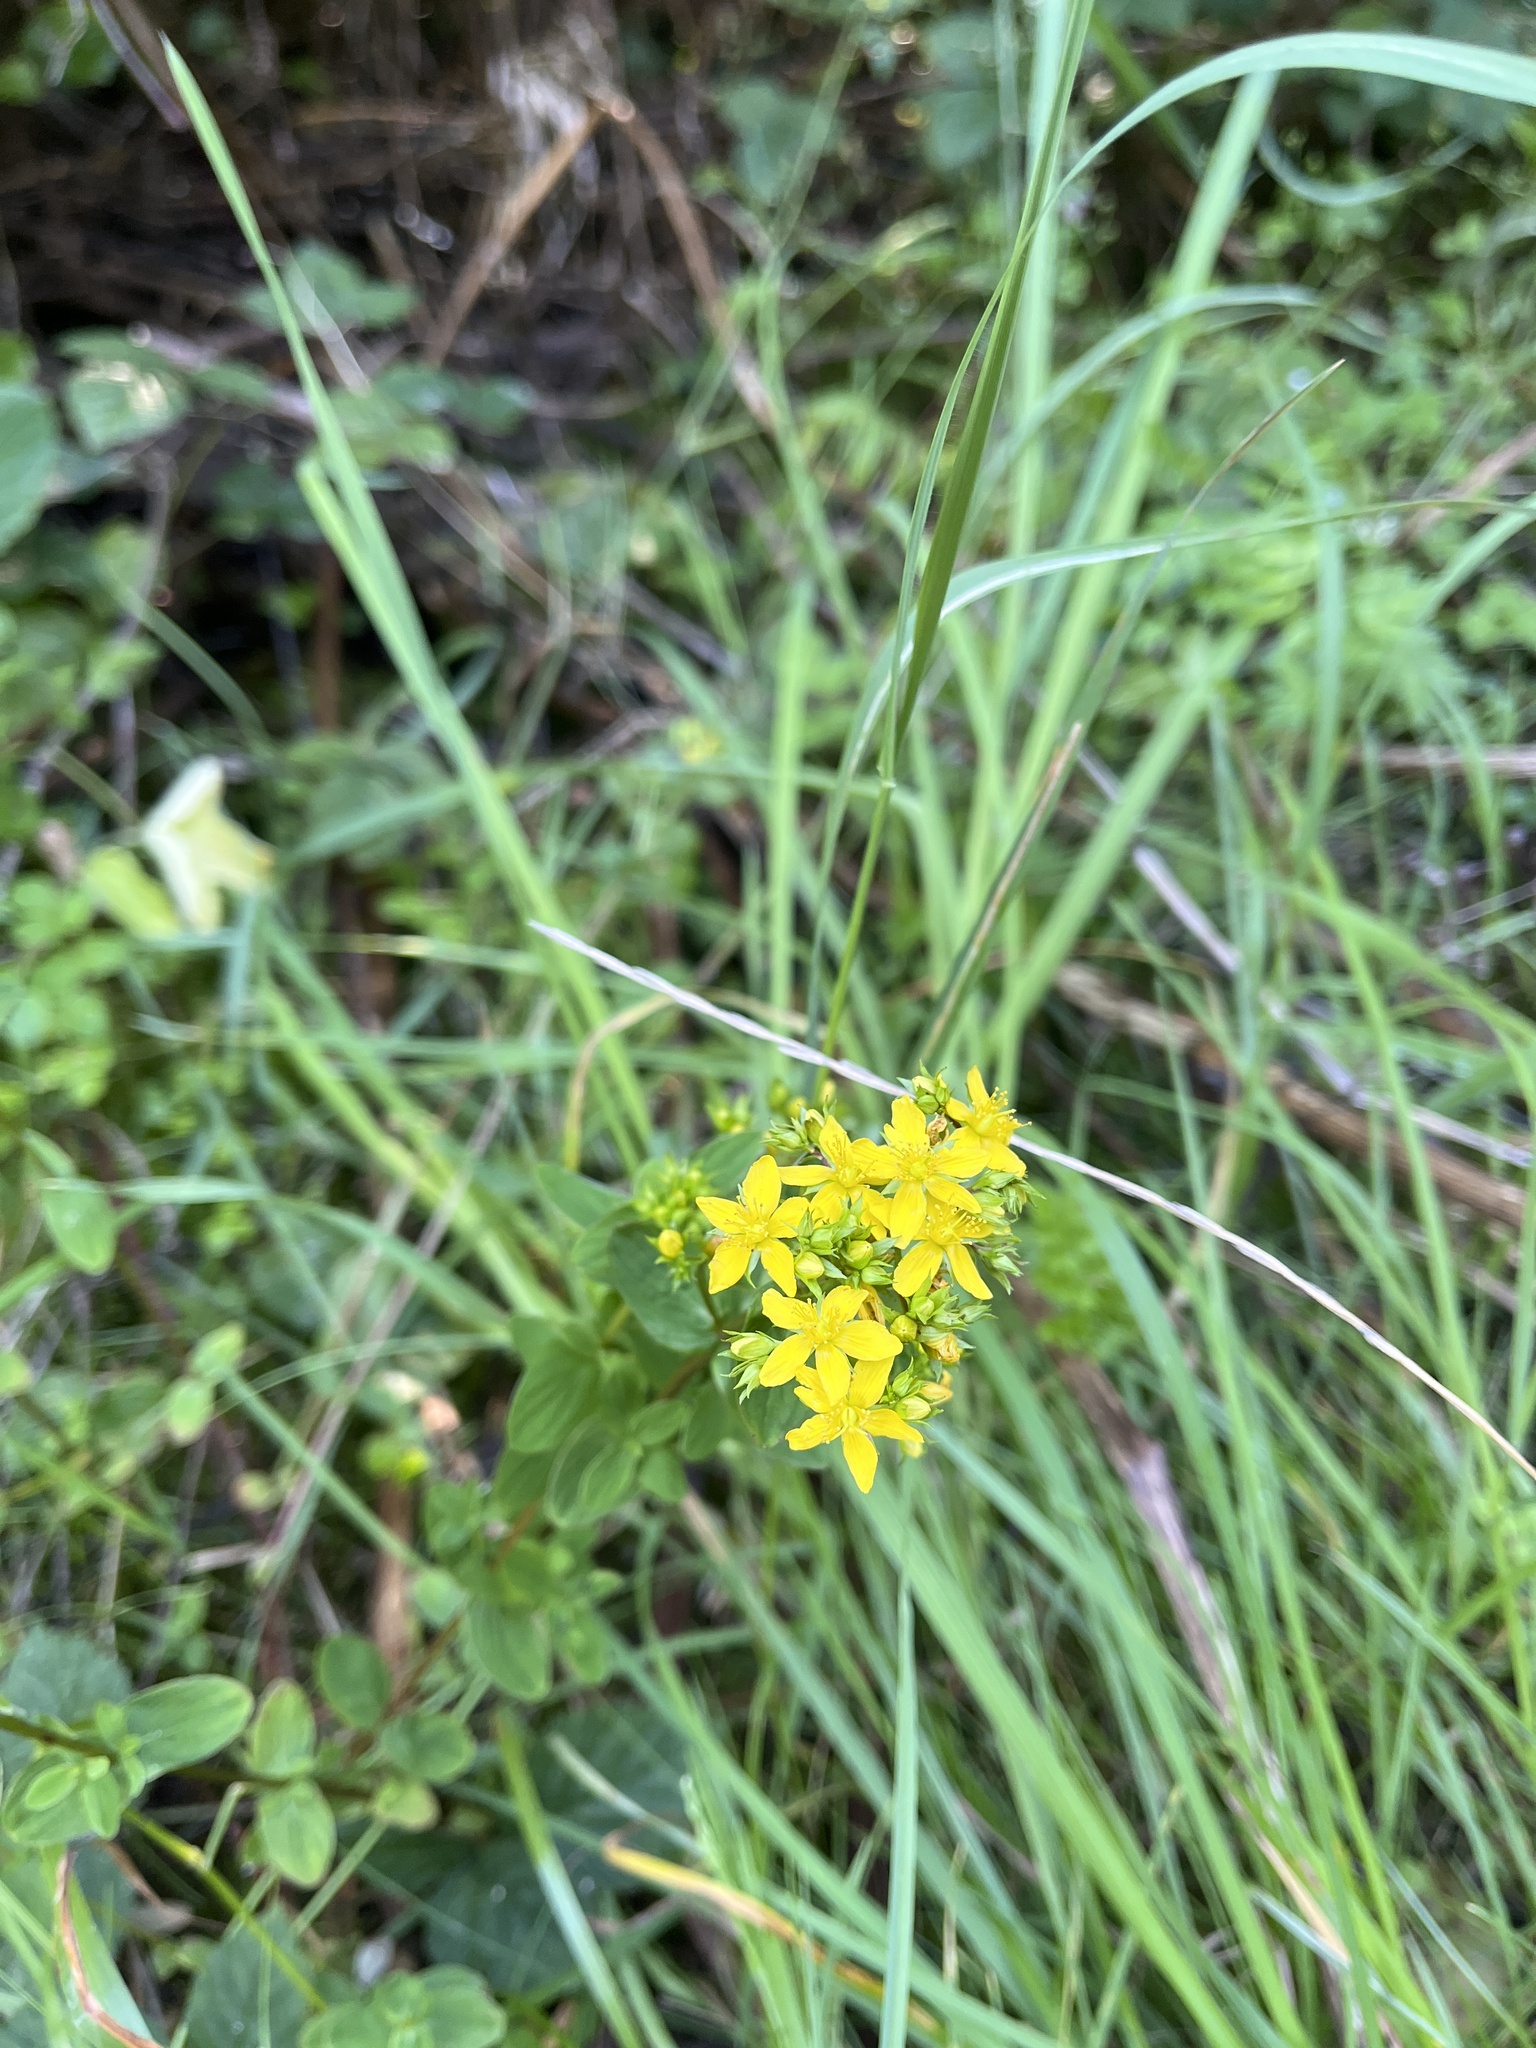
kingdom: Plantae
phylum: Tracheophyta
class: Magnoliopsida
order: Malpighiales
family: Hypericaceae
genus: Hypericum
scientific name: Hypericum tetrapterum
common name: Square-stalked st. john's-wort
